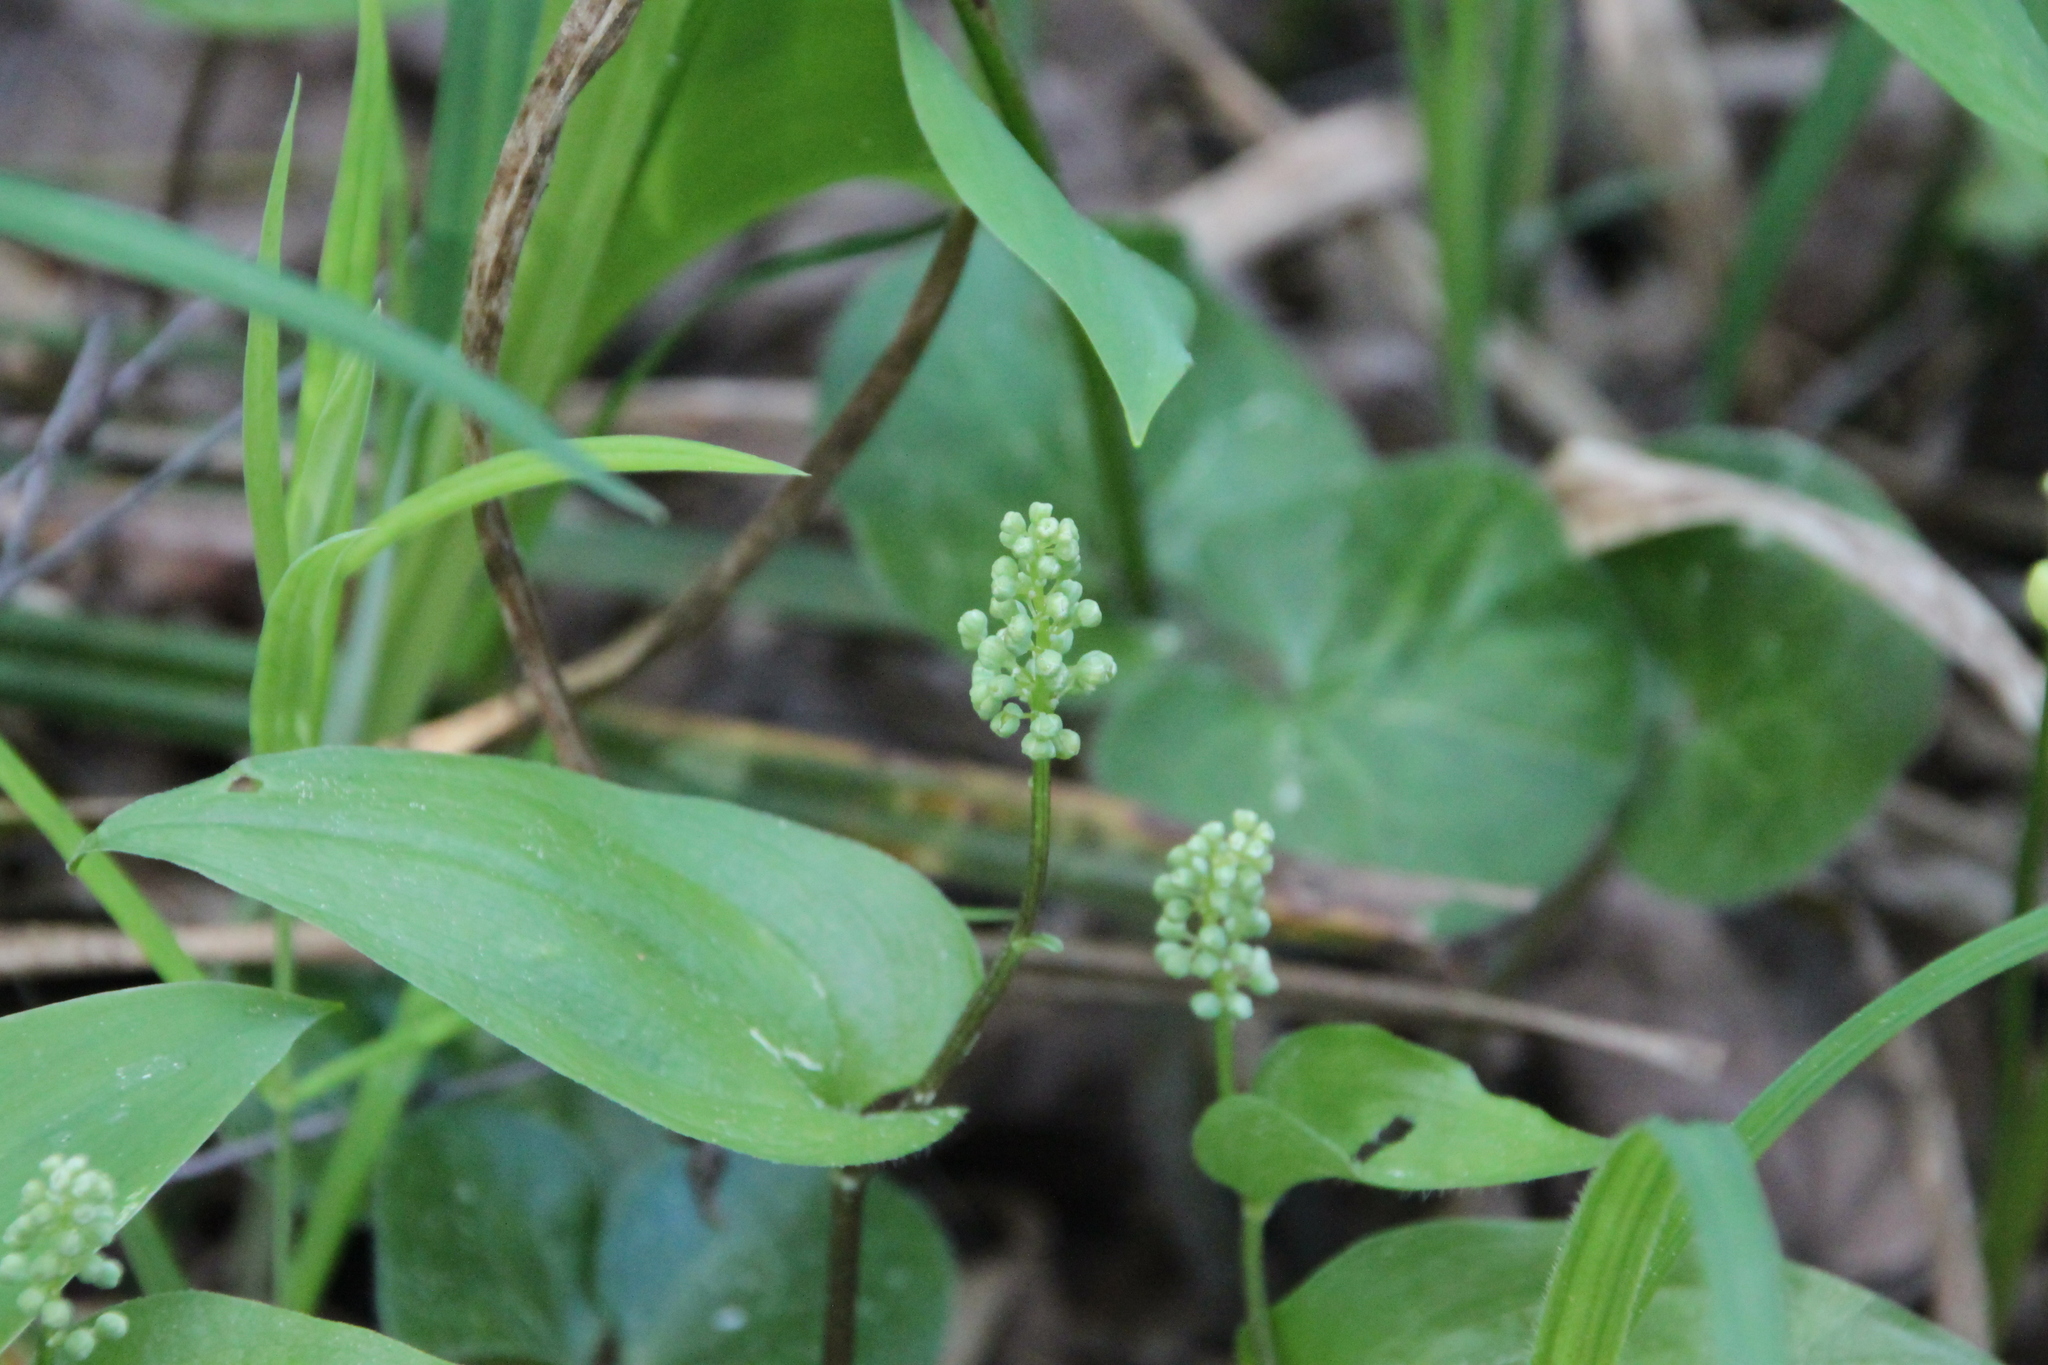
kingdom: Plantae
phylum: Tracheophyta
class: Liliopsida
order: Asparagales
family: Asparagaceae
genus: Maianthemum
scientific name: Maianthemum bifolium
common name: May lily
